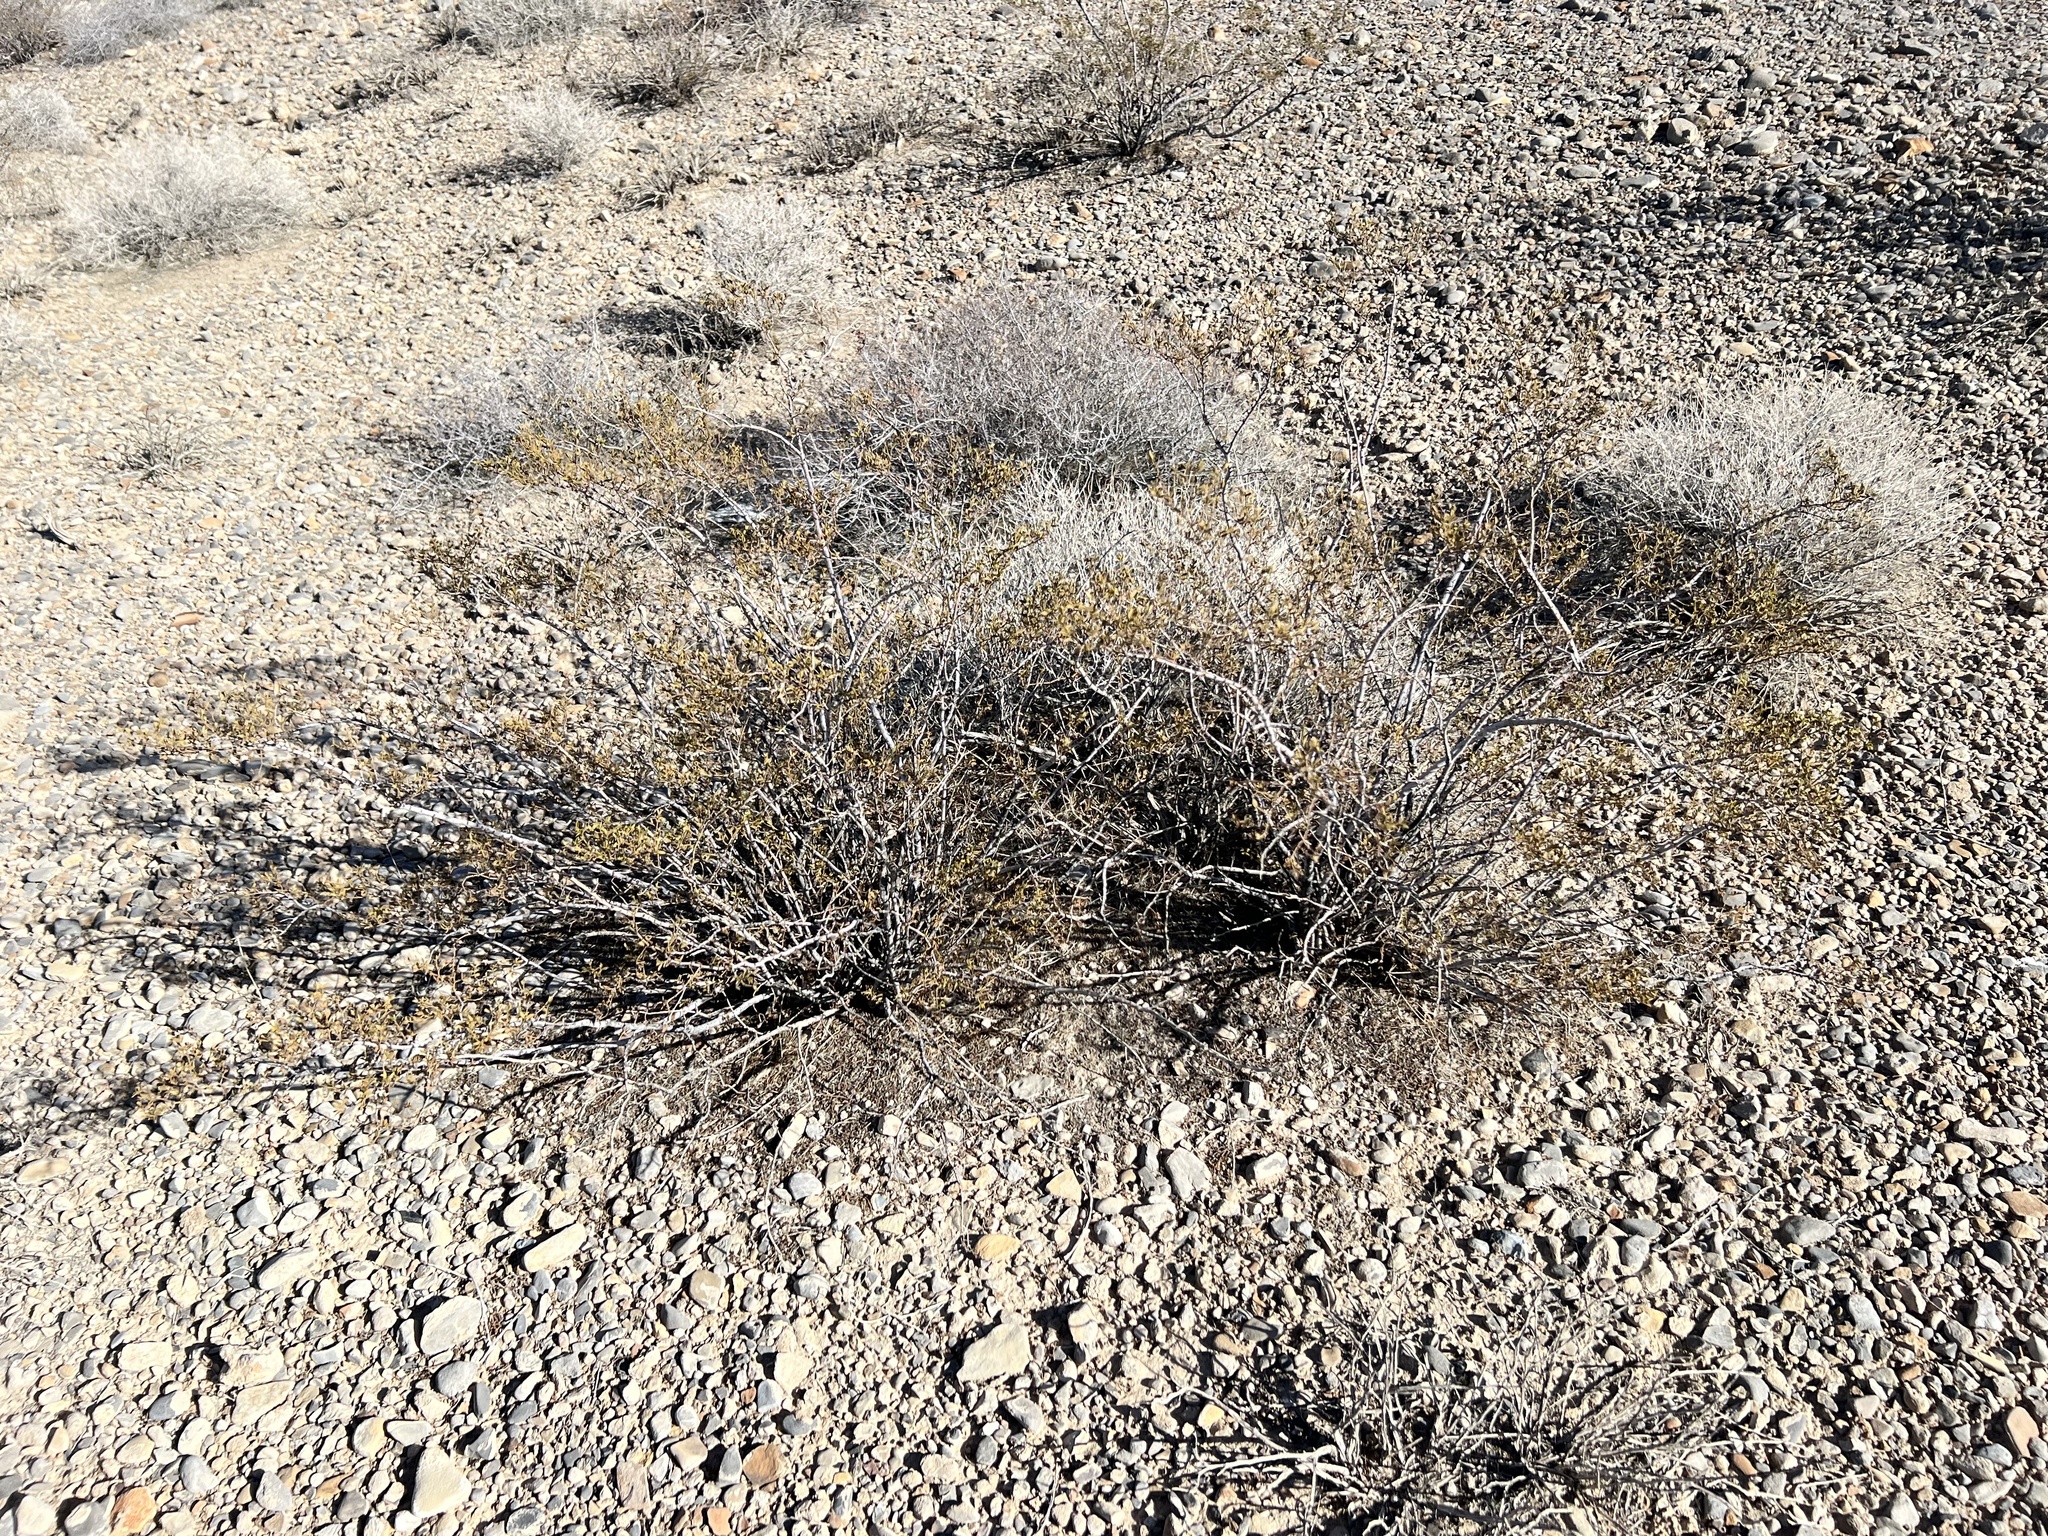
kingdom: Plantae
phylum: Tracheophyta
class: Magnoliopsida
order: Zygophyllales
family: Zygophyllaceae
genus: Larrea
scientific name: Larrea tridentata
